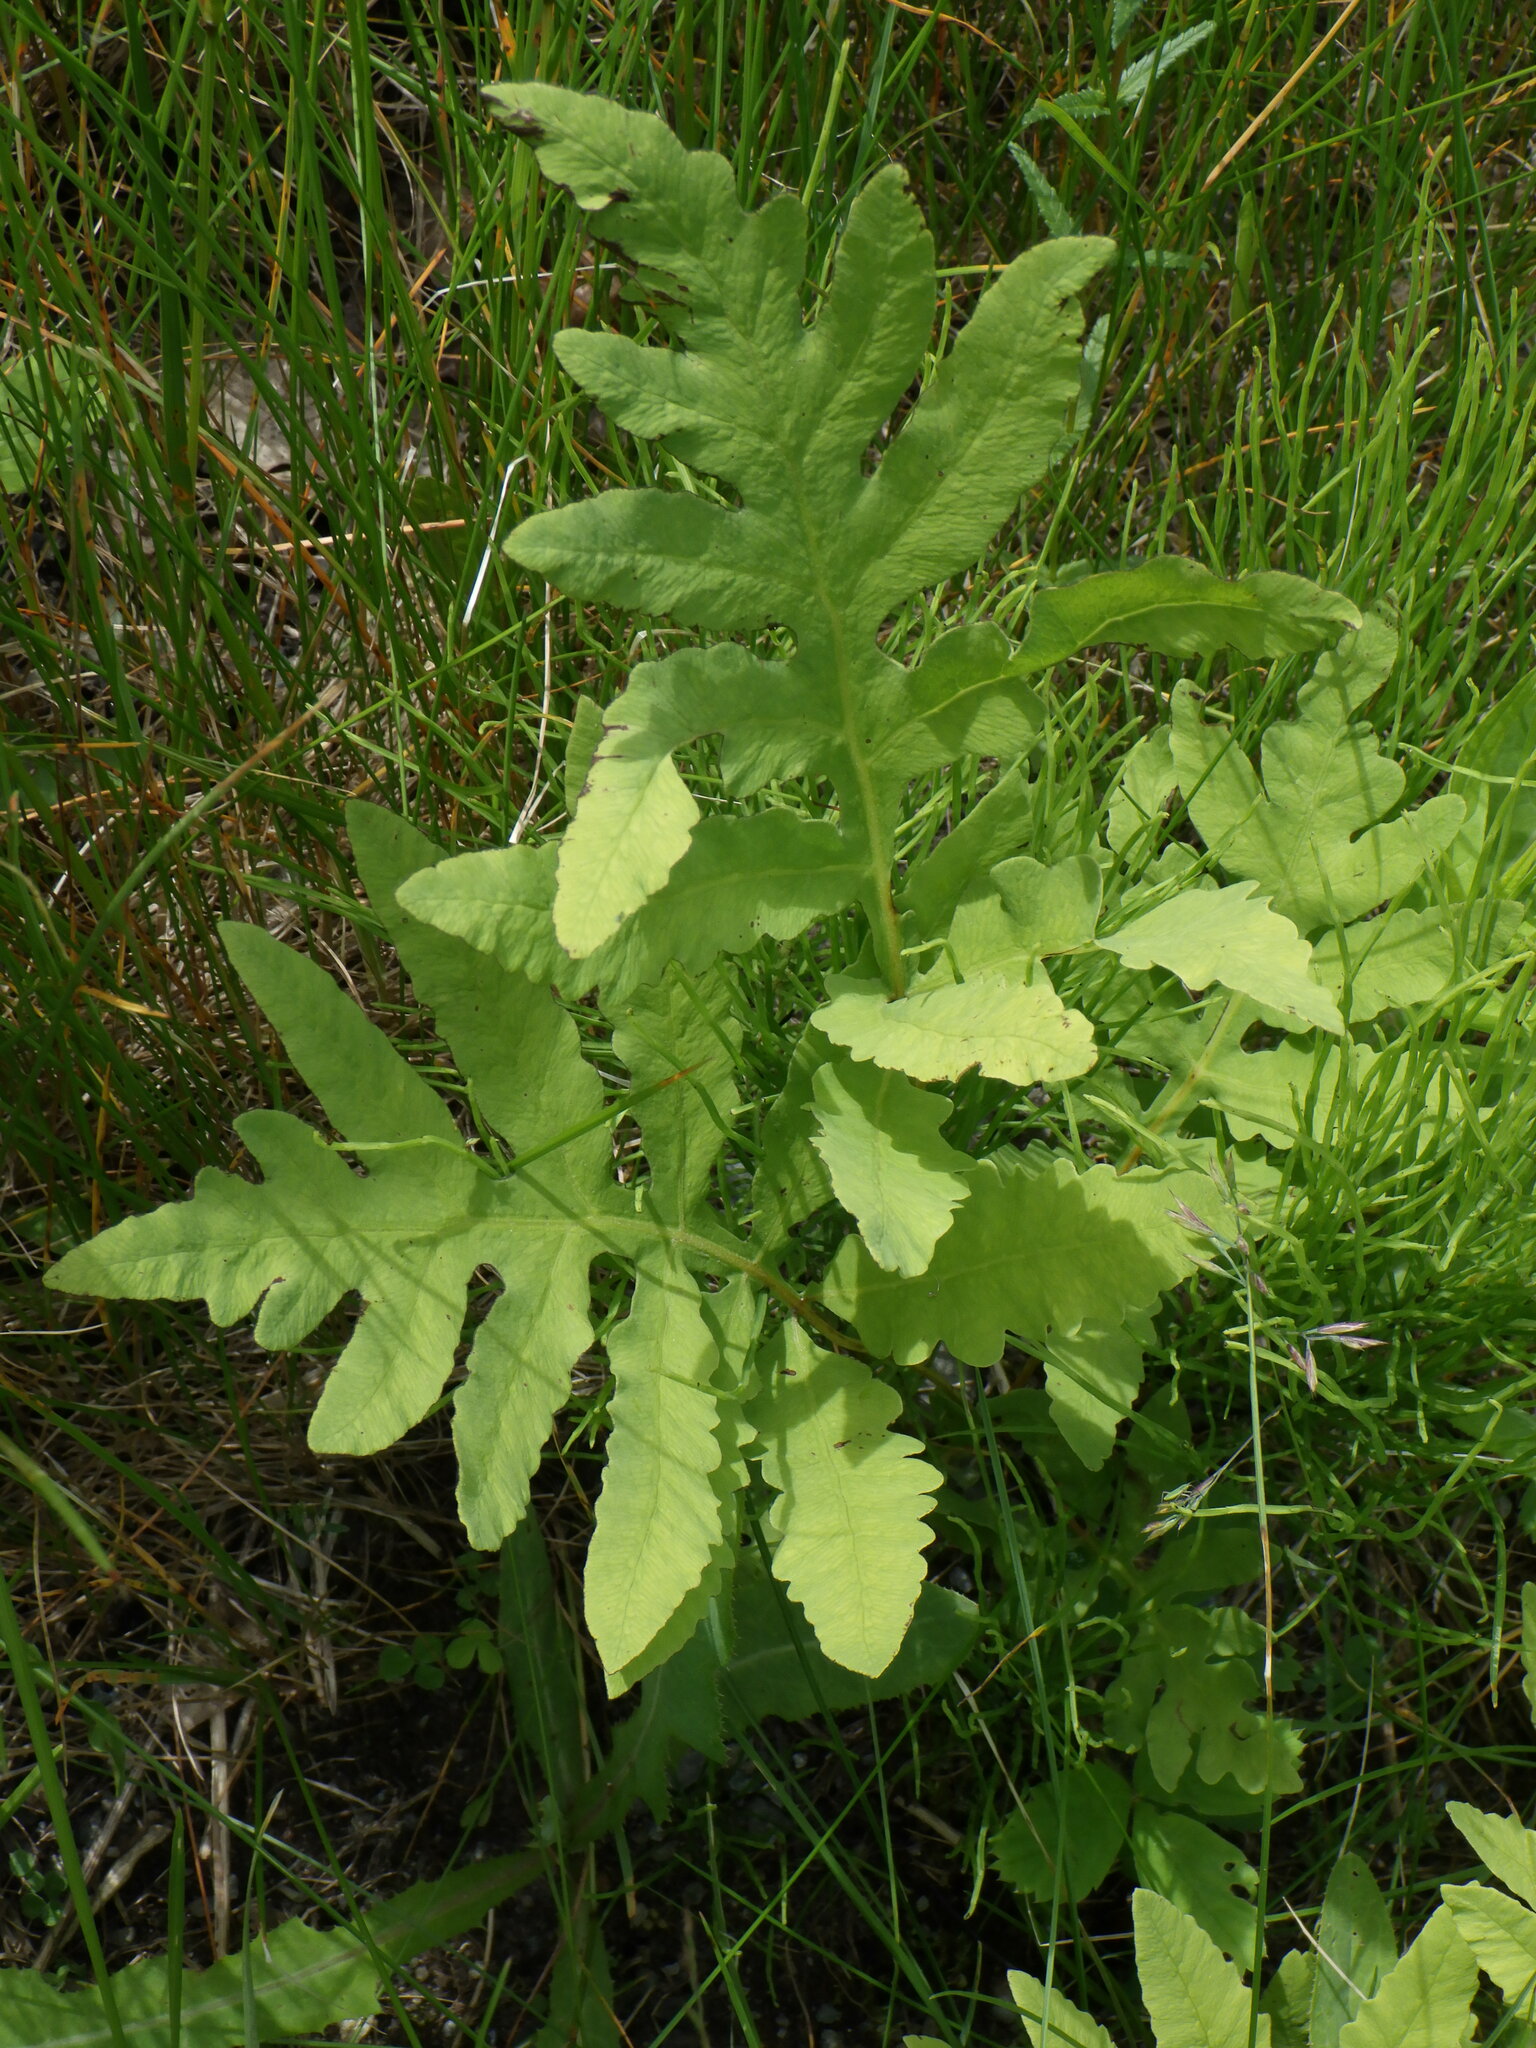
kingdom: Plantae
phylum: Tracheophyta
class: Polypodiopsida
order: Polypodiales
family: Onocleaceae
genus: Onoclea
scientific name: Onoclea sensibilis
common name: Sensitive fern
